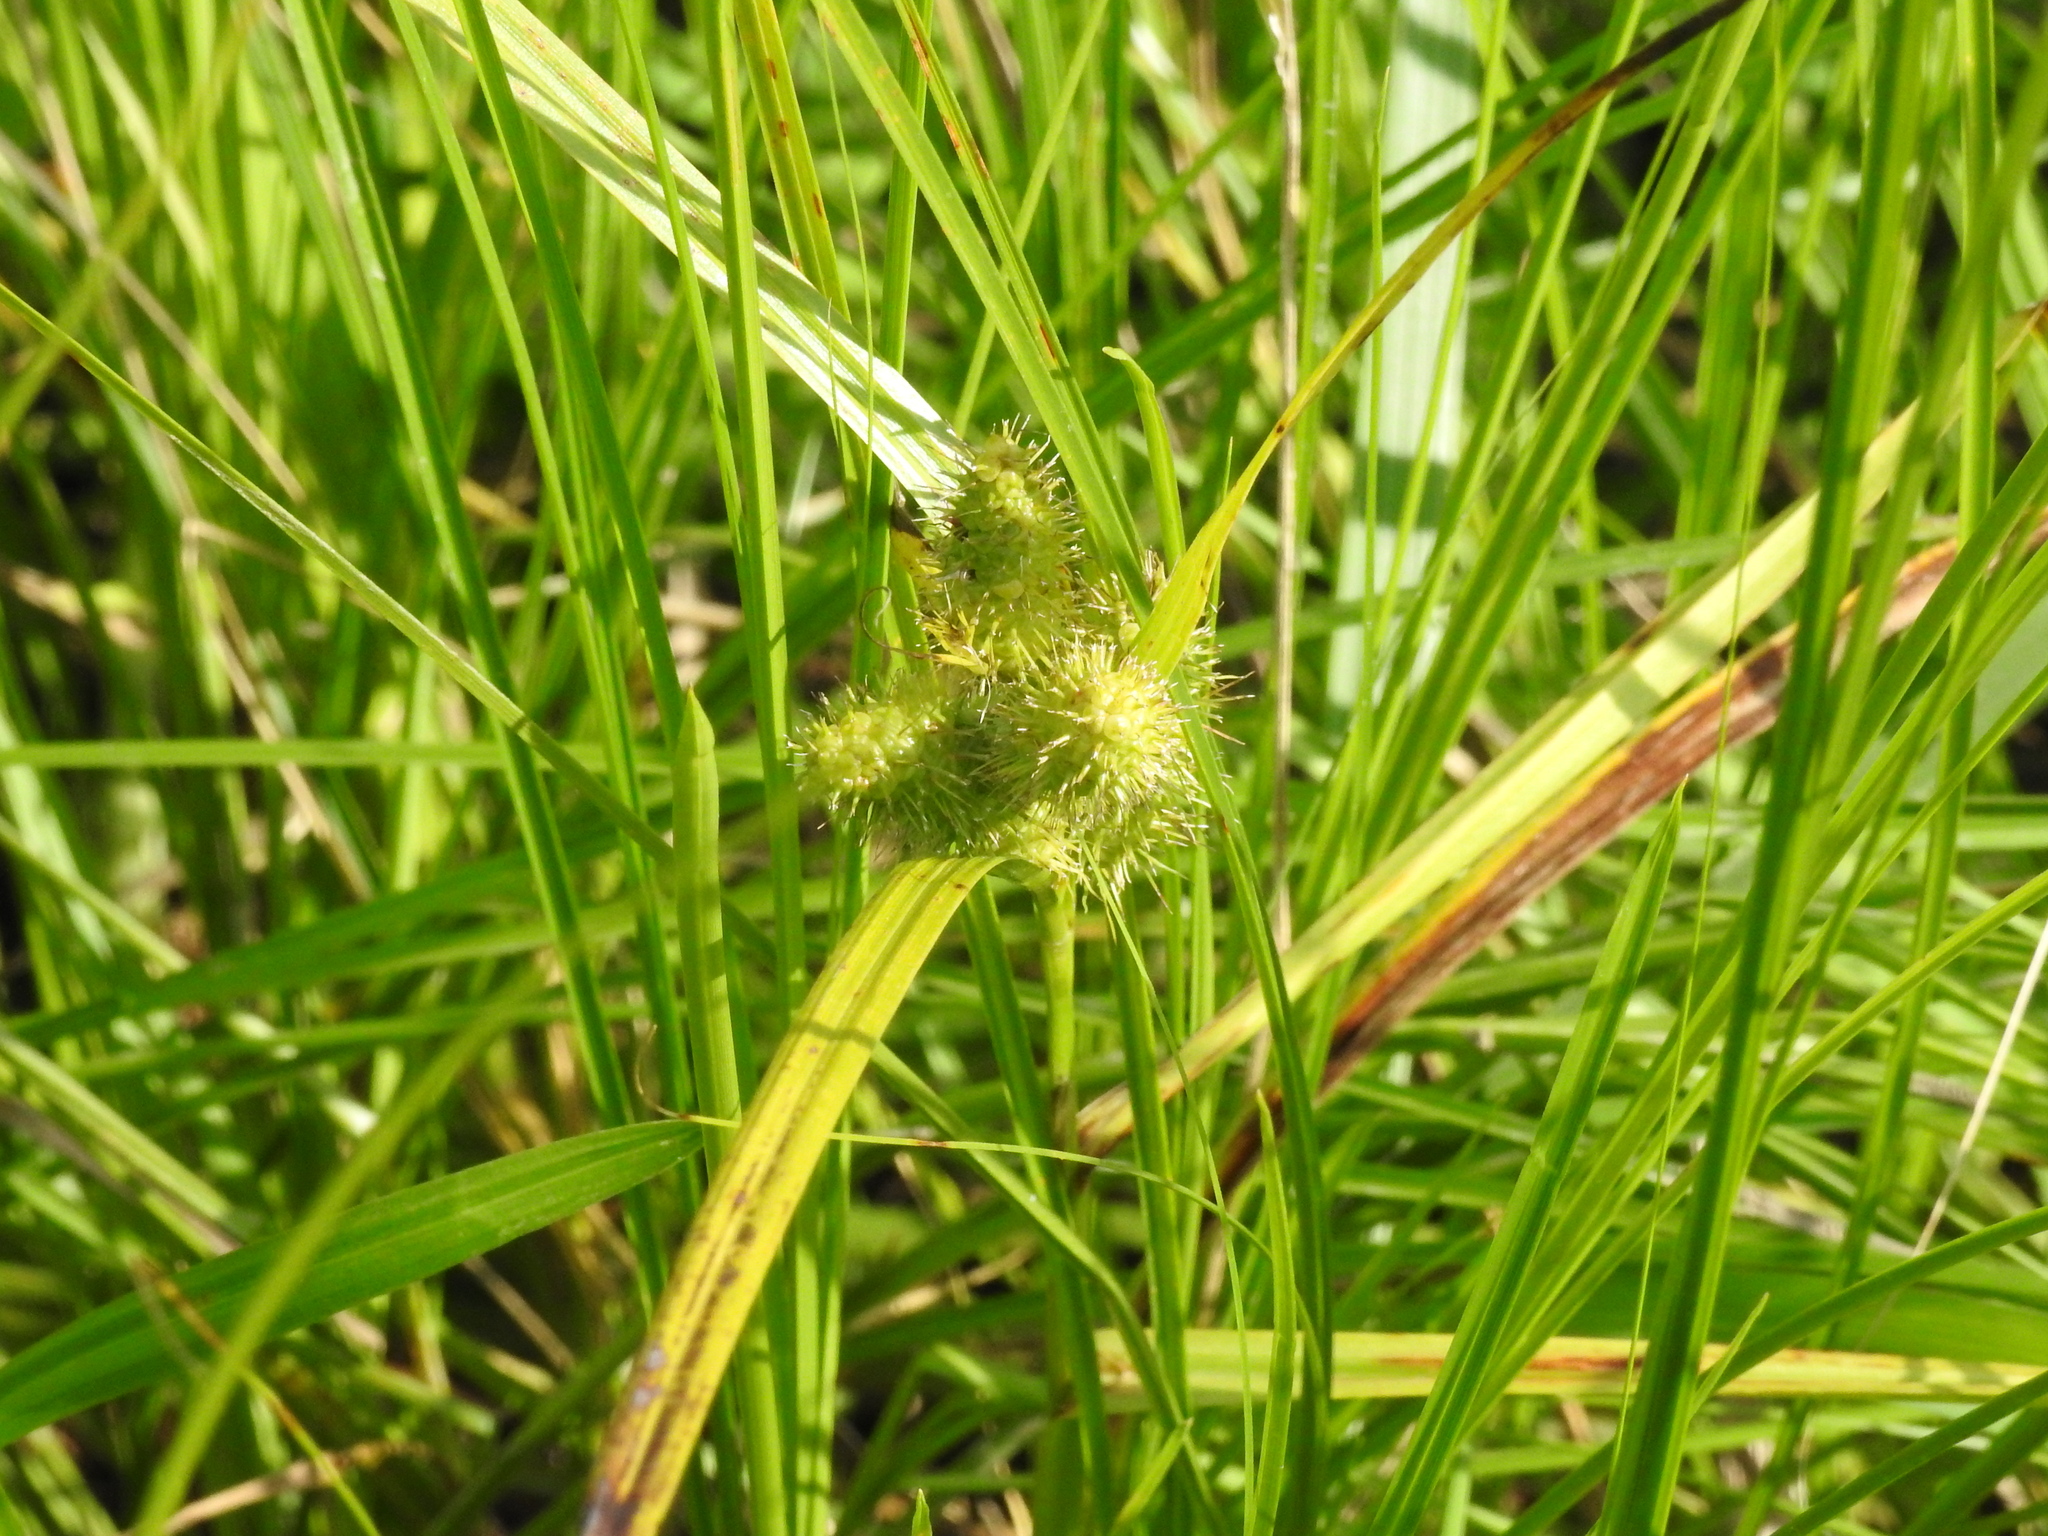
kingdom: Plantae
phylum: Tracheophyta
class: Liliopsida
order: Poales
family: Cyperaceae
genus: Carex
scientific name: Carex frankii
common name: Frank's sedge
